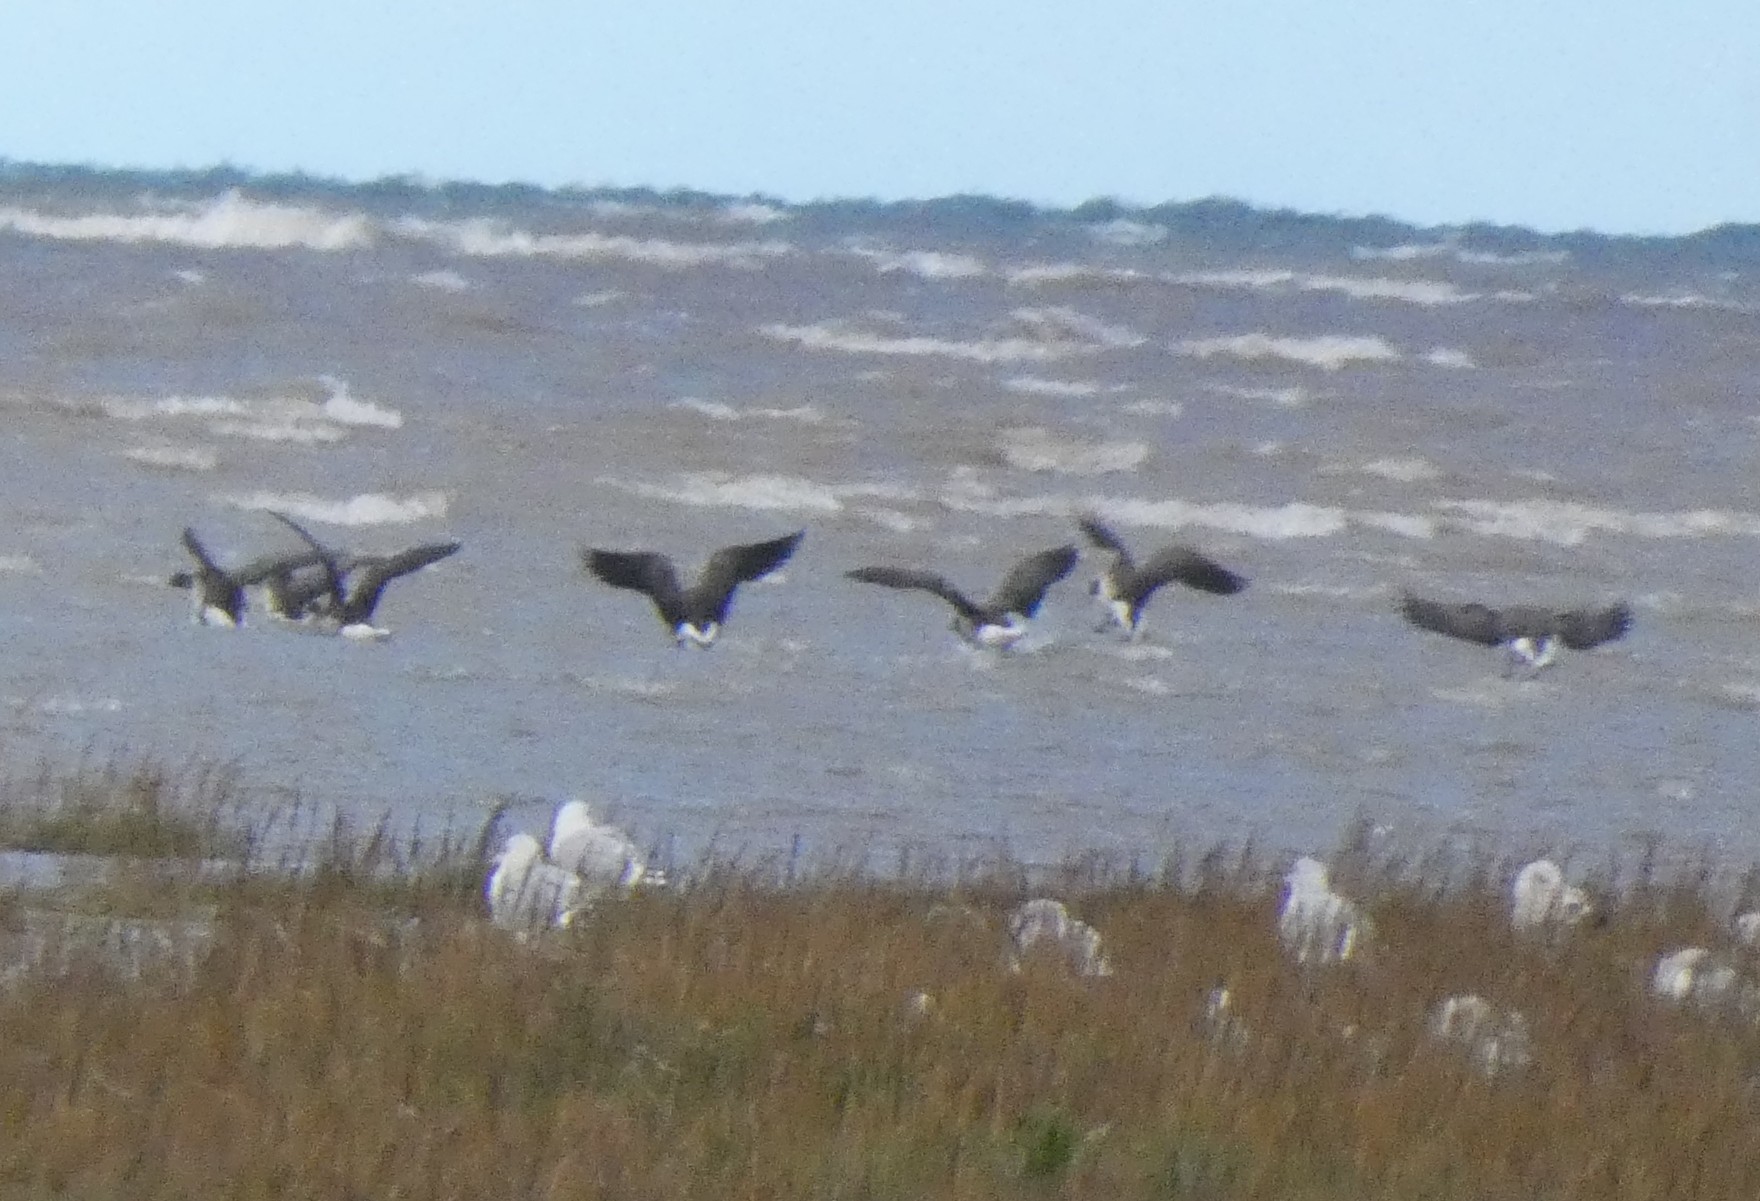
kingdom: Animalia
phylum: Chordata
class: Aves
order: Anseriformes
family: Anatidae
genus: Branta
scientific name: Branta bernicla
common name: Brant goose
